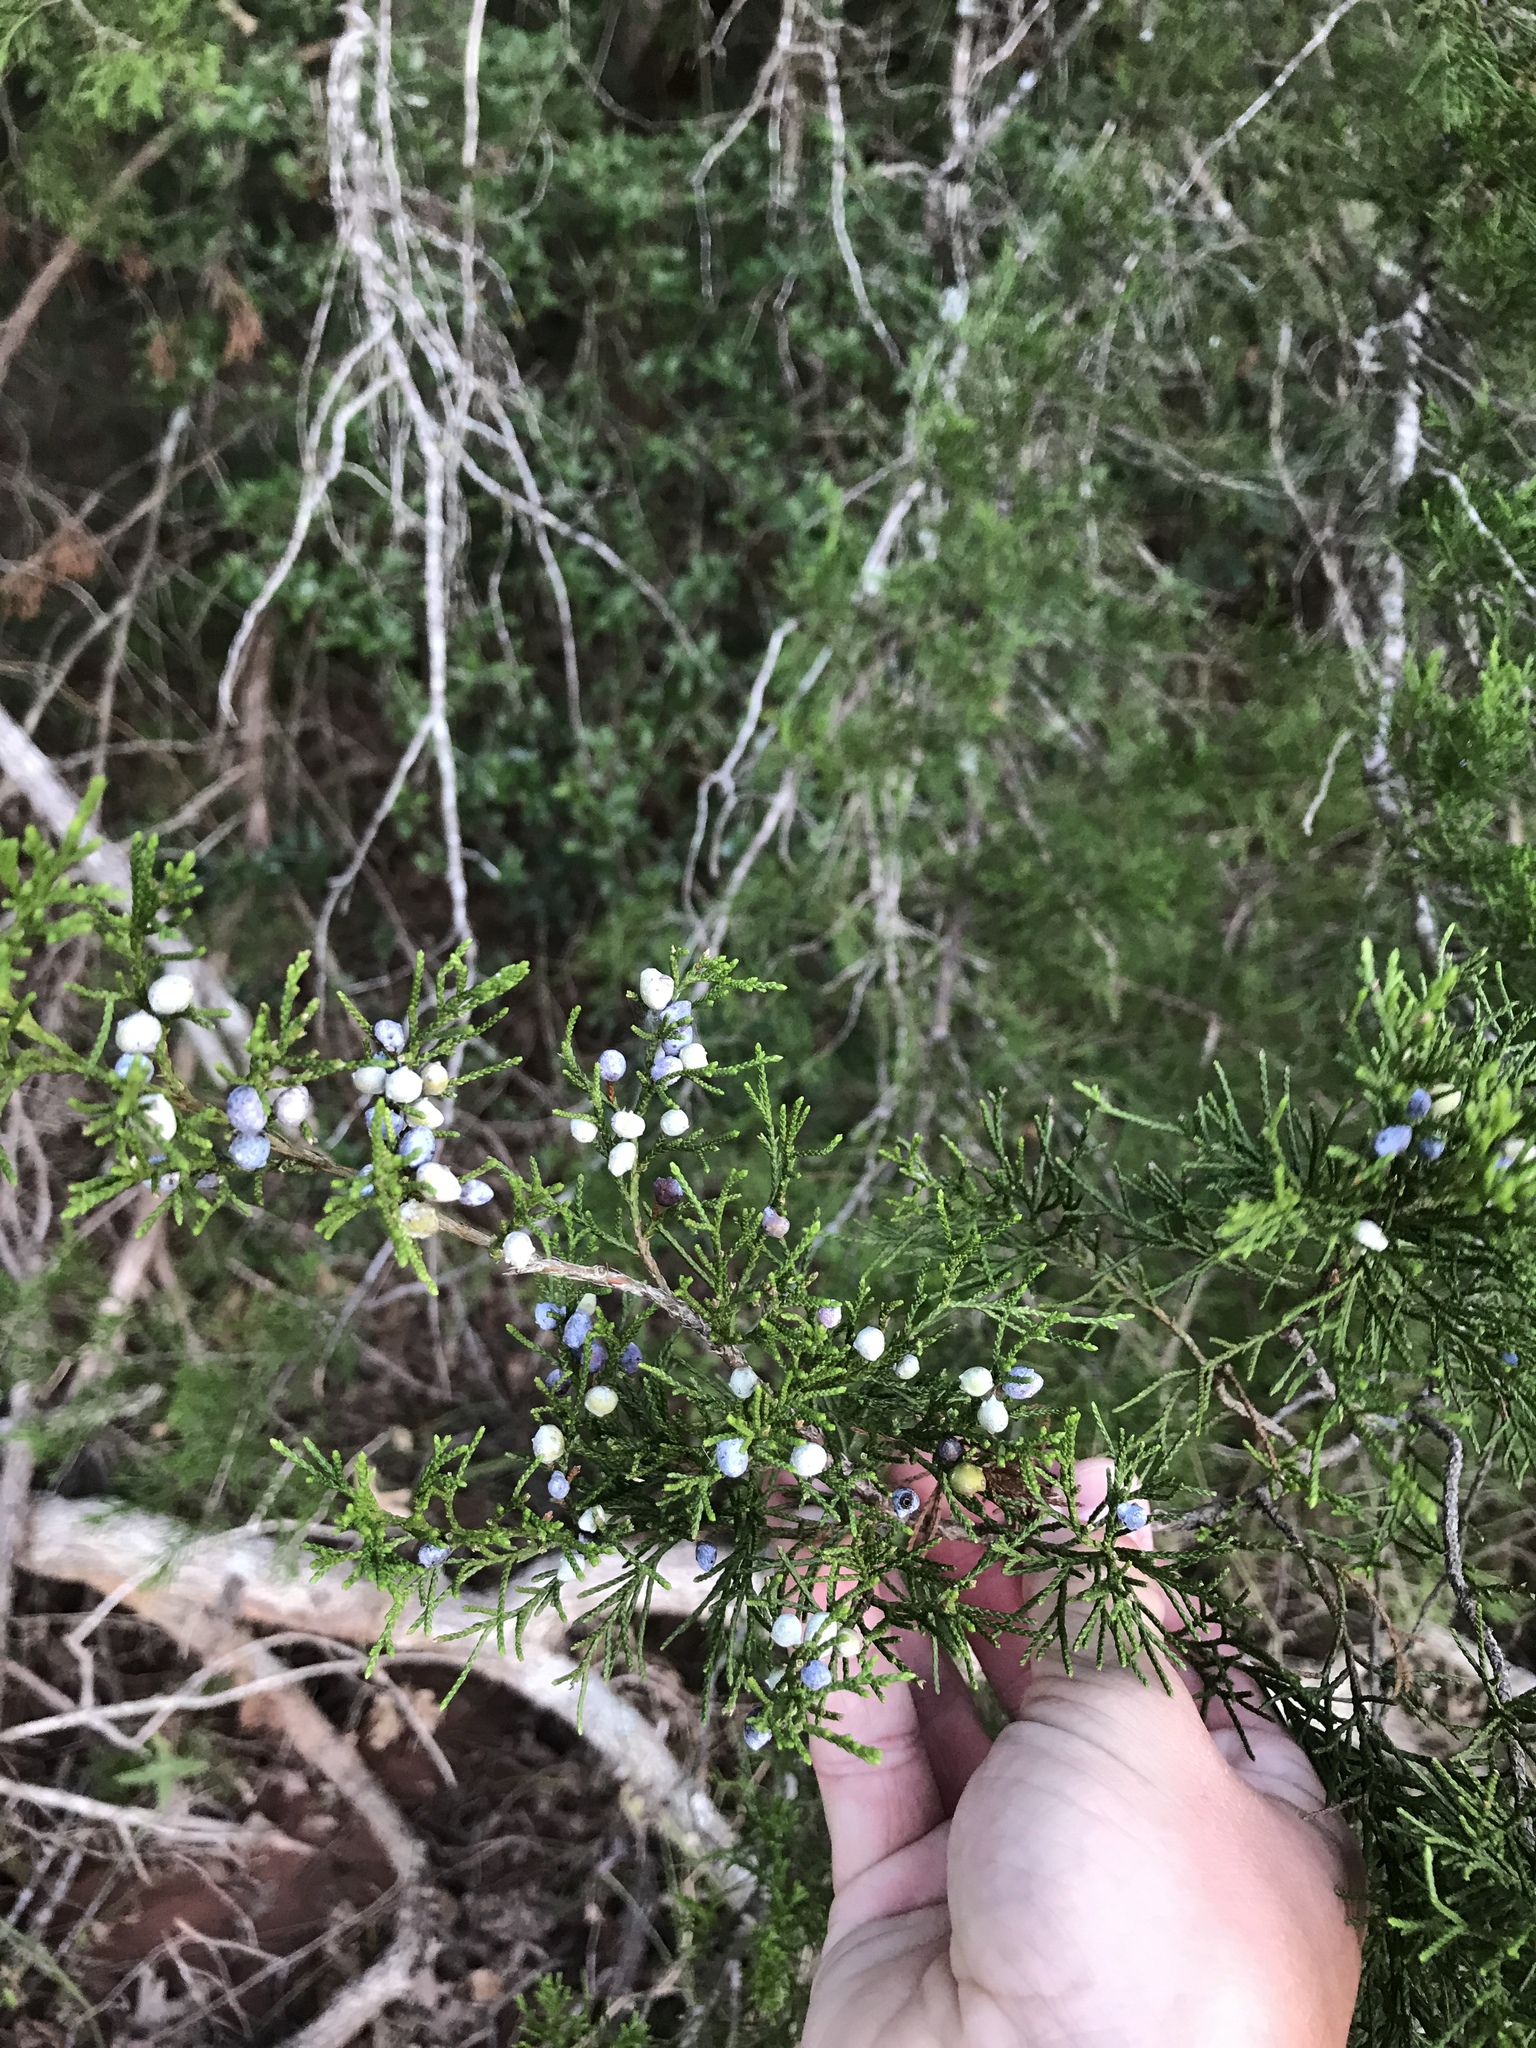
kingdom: Plantae
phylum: Tracheophyta
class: Pinopsida
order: Pinales
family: Cupressaceae
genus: Juniperus
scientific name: Juniperus virginiana
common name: Red juniper
